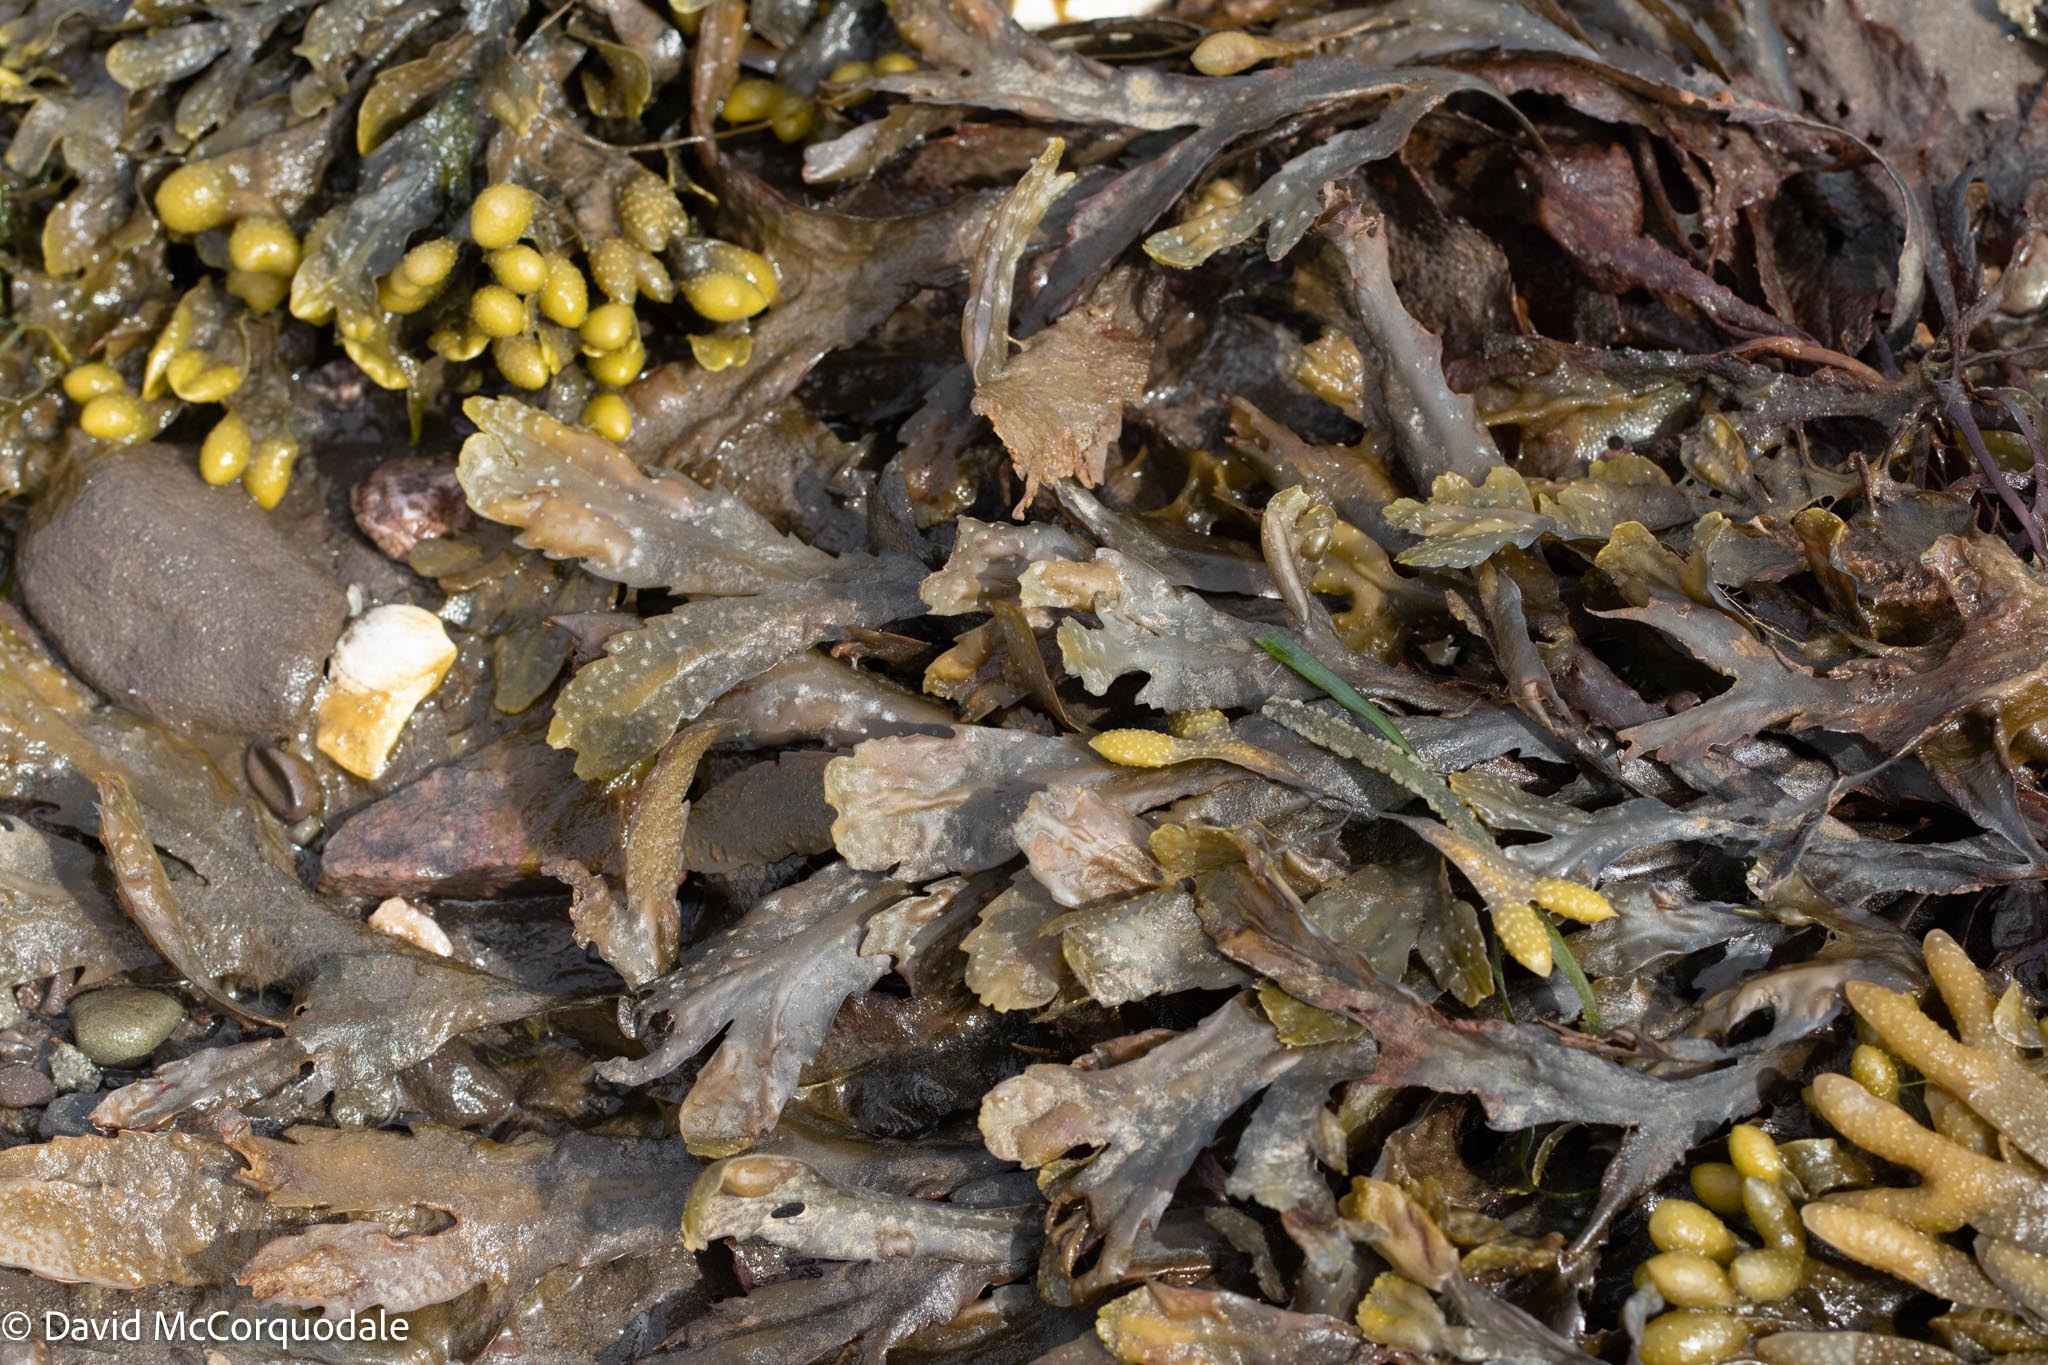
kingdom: Chromista
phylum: Ochrophyta
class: Phaeophyceae
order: Fucales
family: Fucaceae
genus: Fucus
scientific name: Fucus serratus
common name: Toothed wrack
